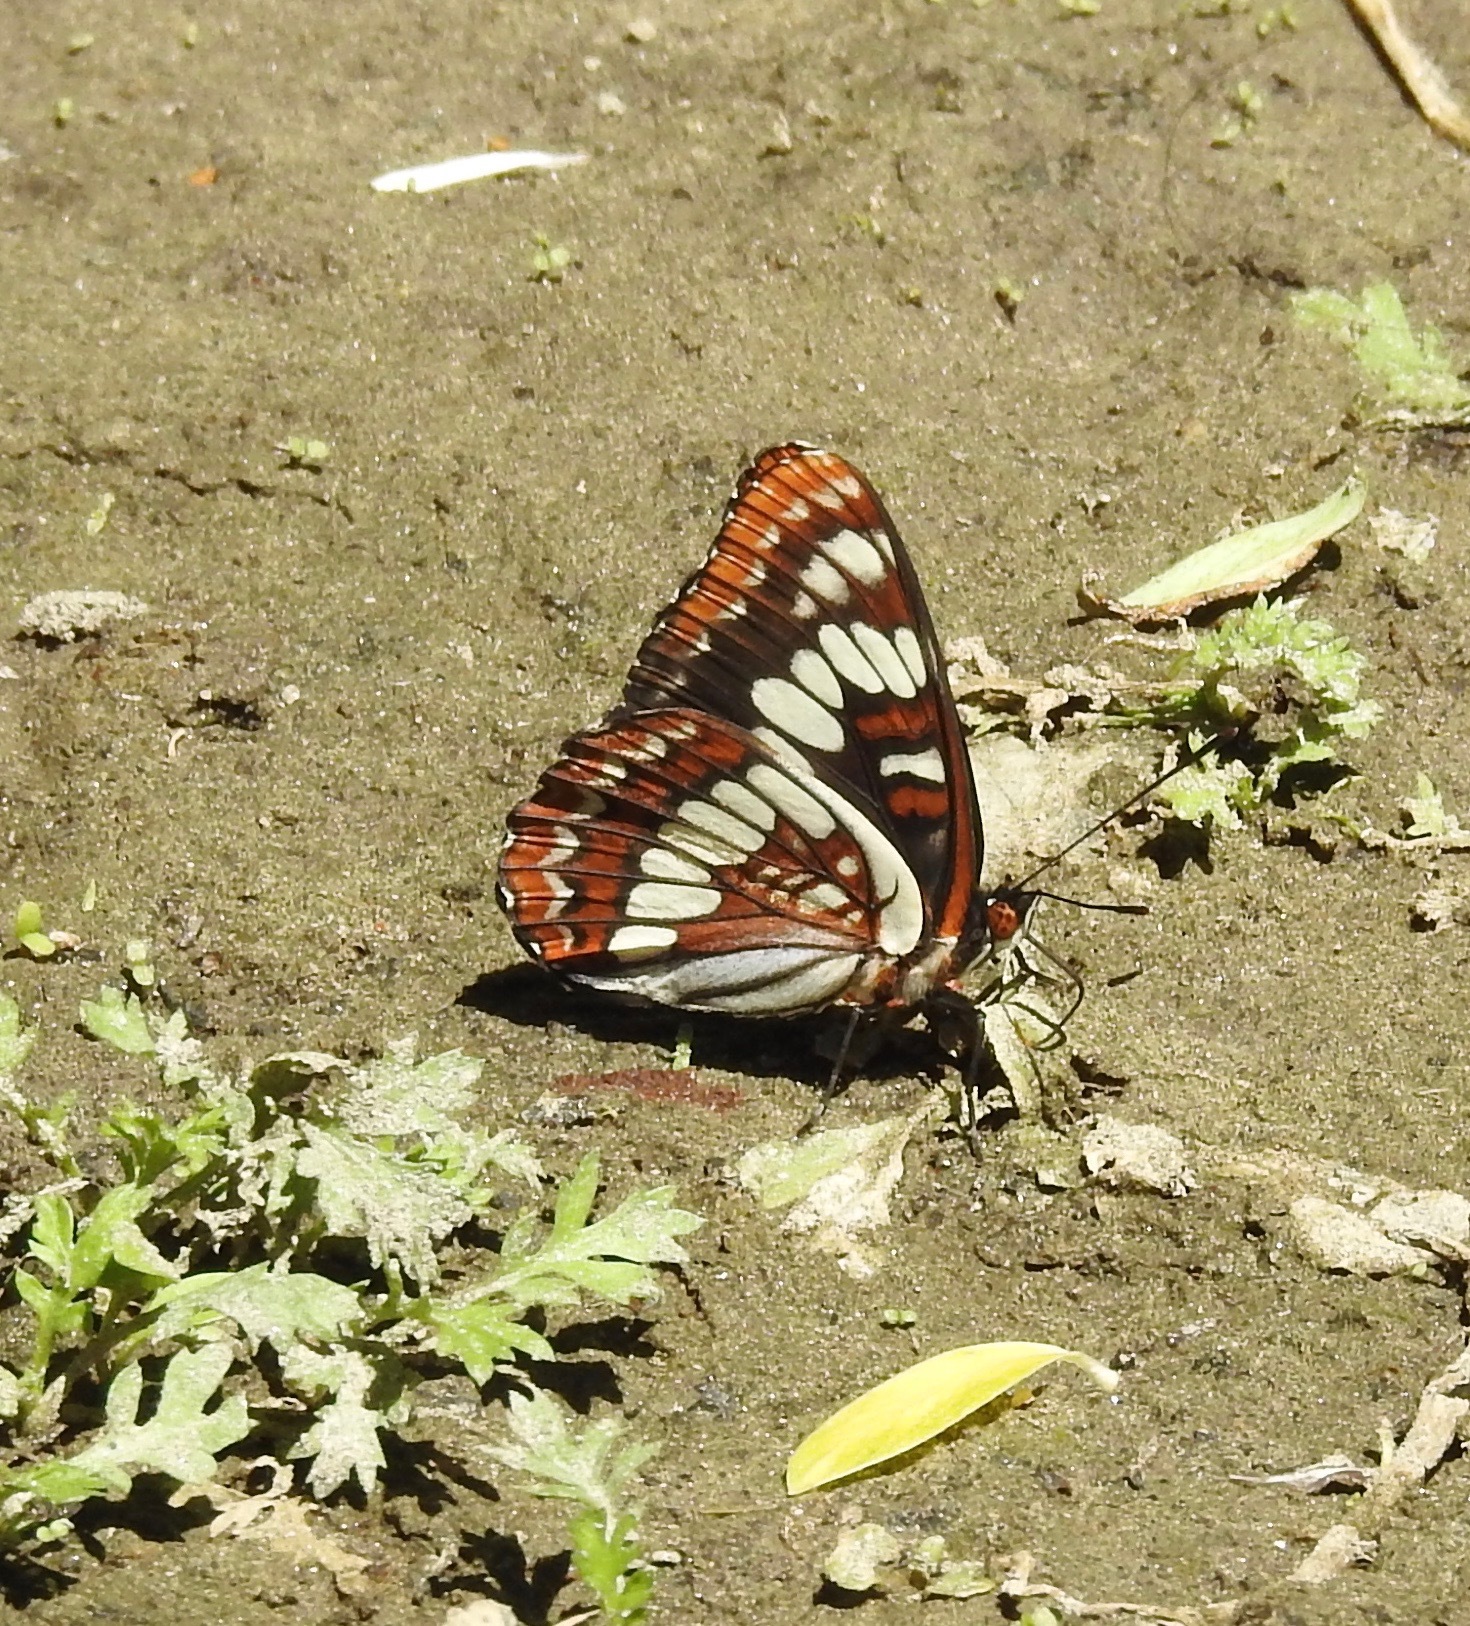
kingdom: Animalia
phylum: Arthropoda
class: Insecta
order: Lepidoptera
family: Nymphalidae
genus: Limenitis
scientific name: Limenitis lorquini
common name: Lorquin's admiral
